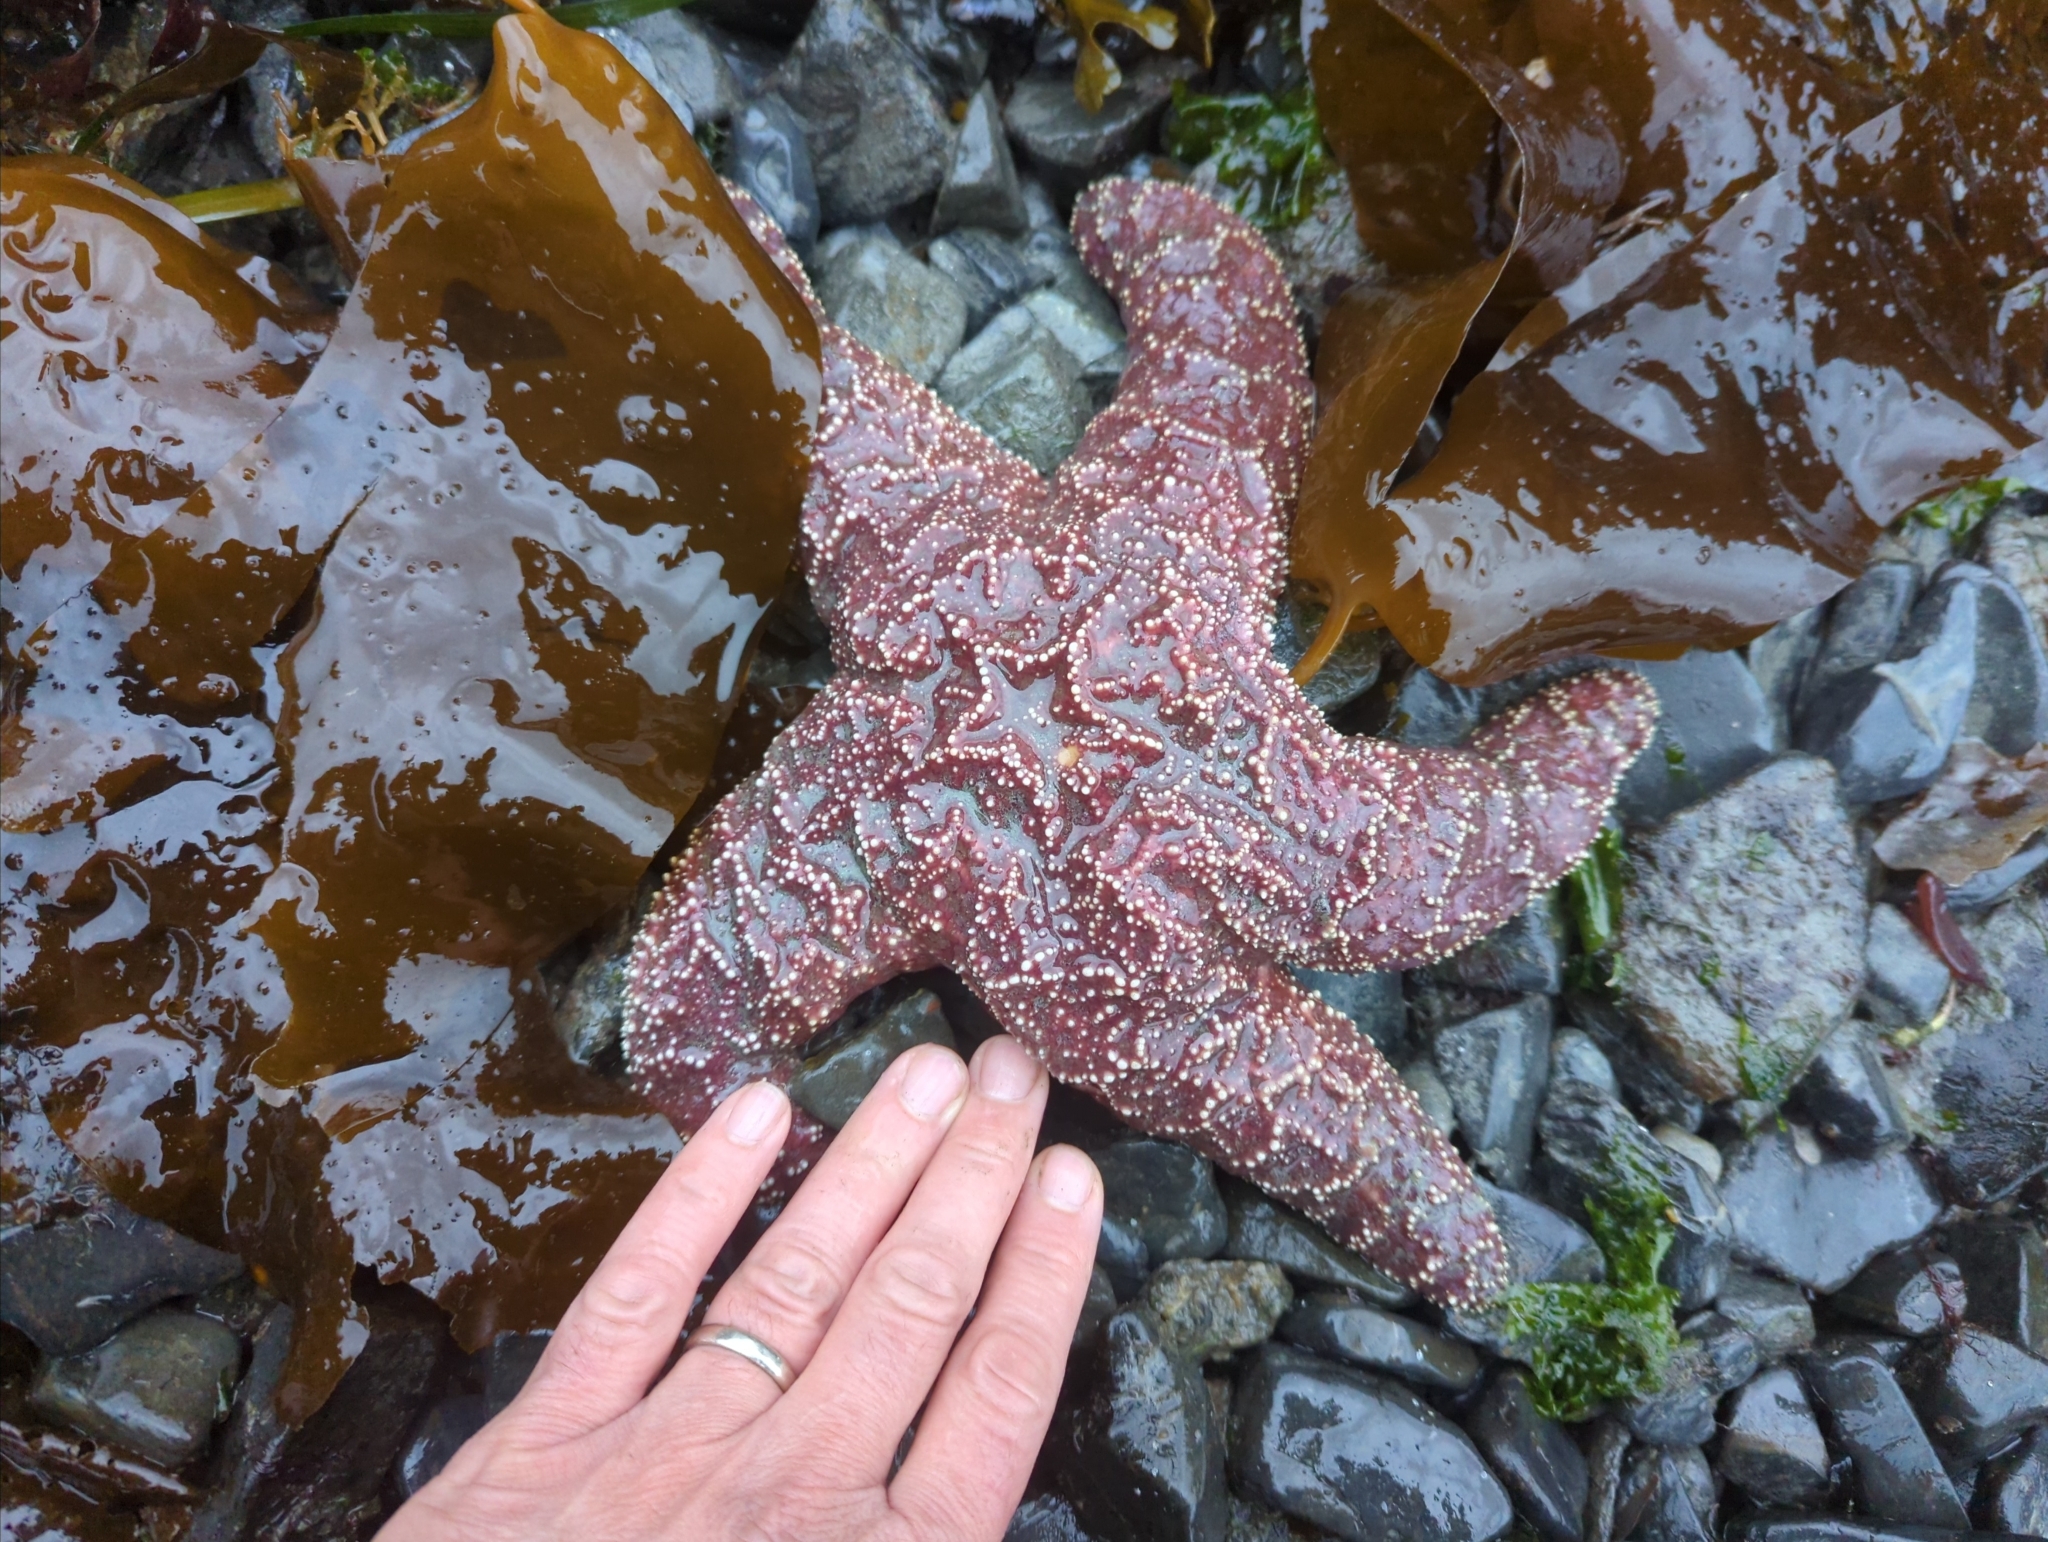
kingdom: Animalia
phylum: Echinodermata
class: Asteroidea
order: Forcipulatida
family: Asteriidae
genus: Pisaster
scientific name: Pisaster ochraceus
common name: Ochre stars
